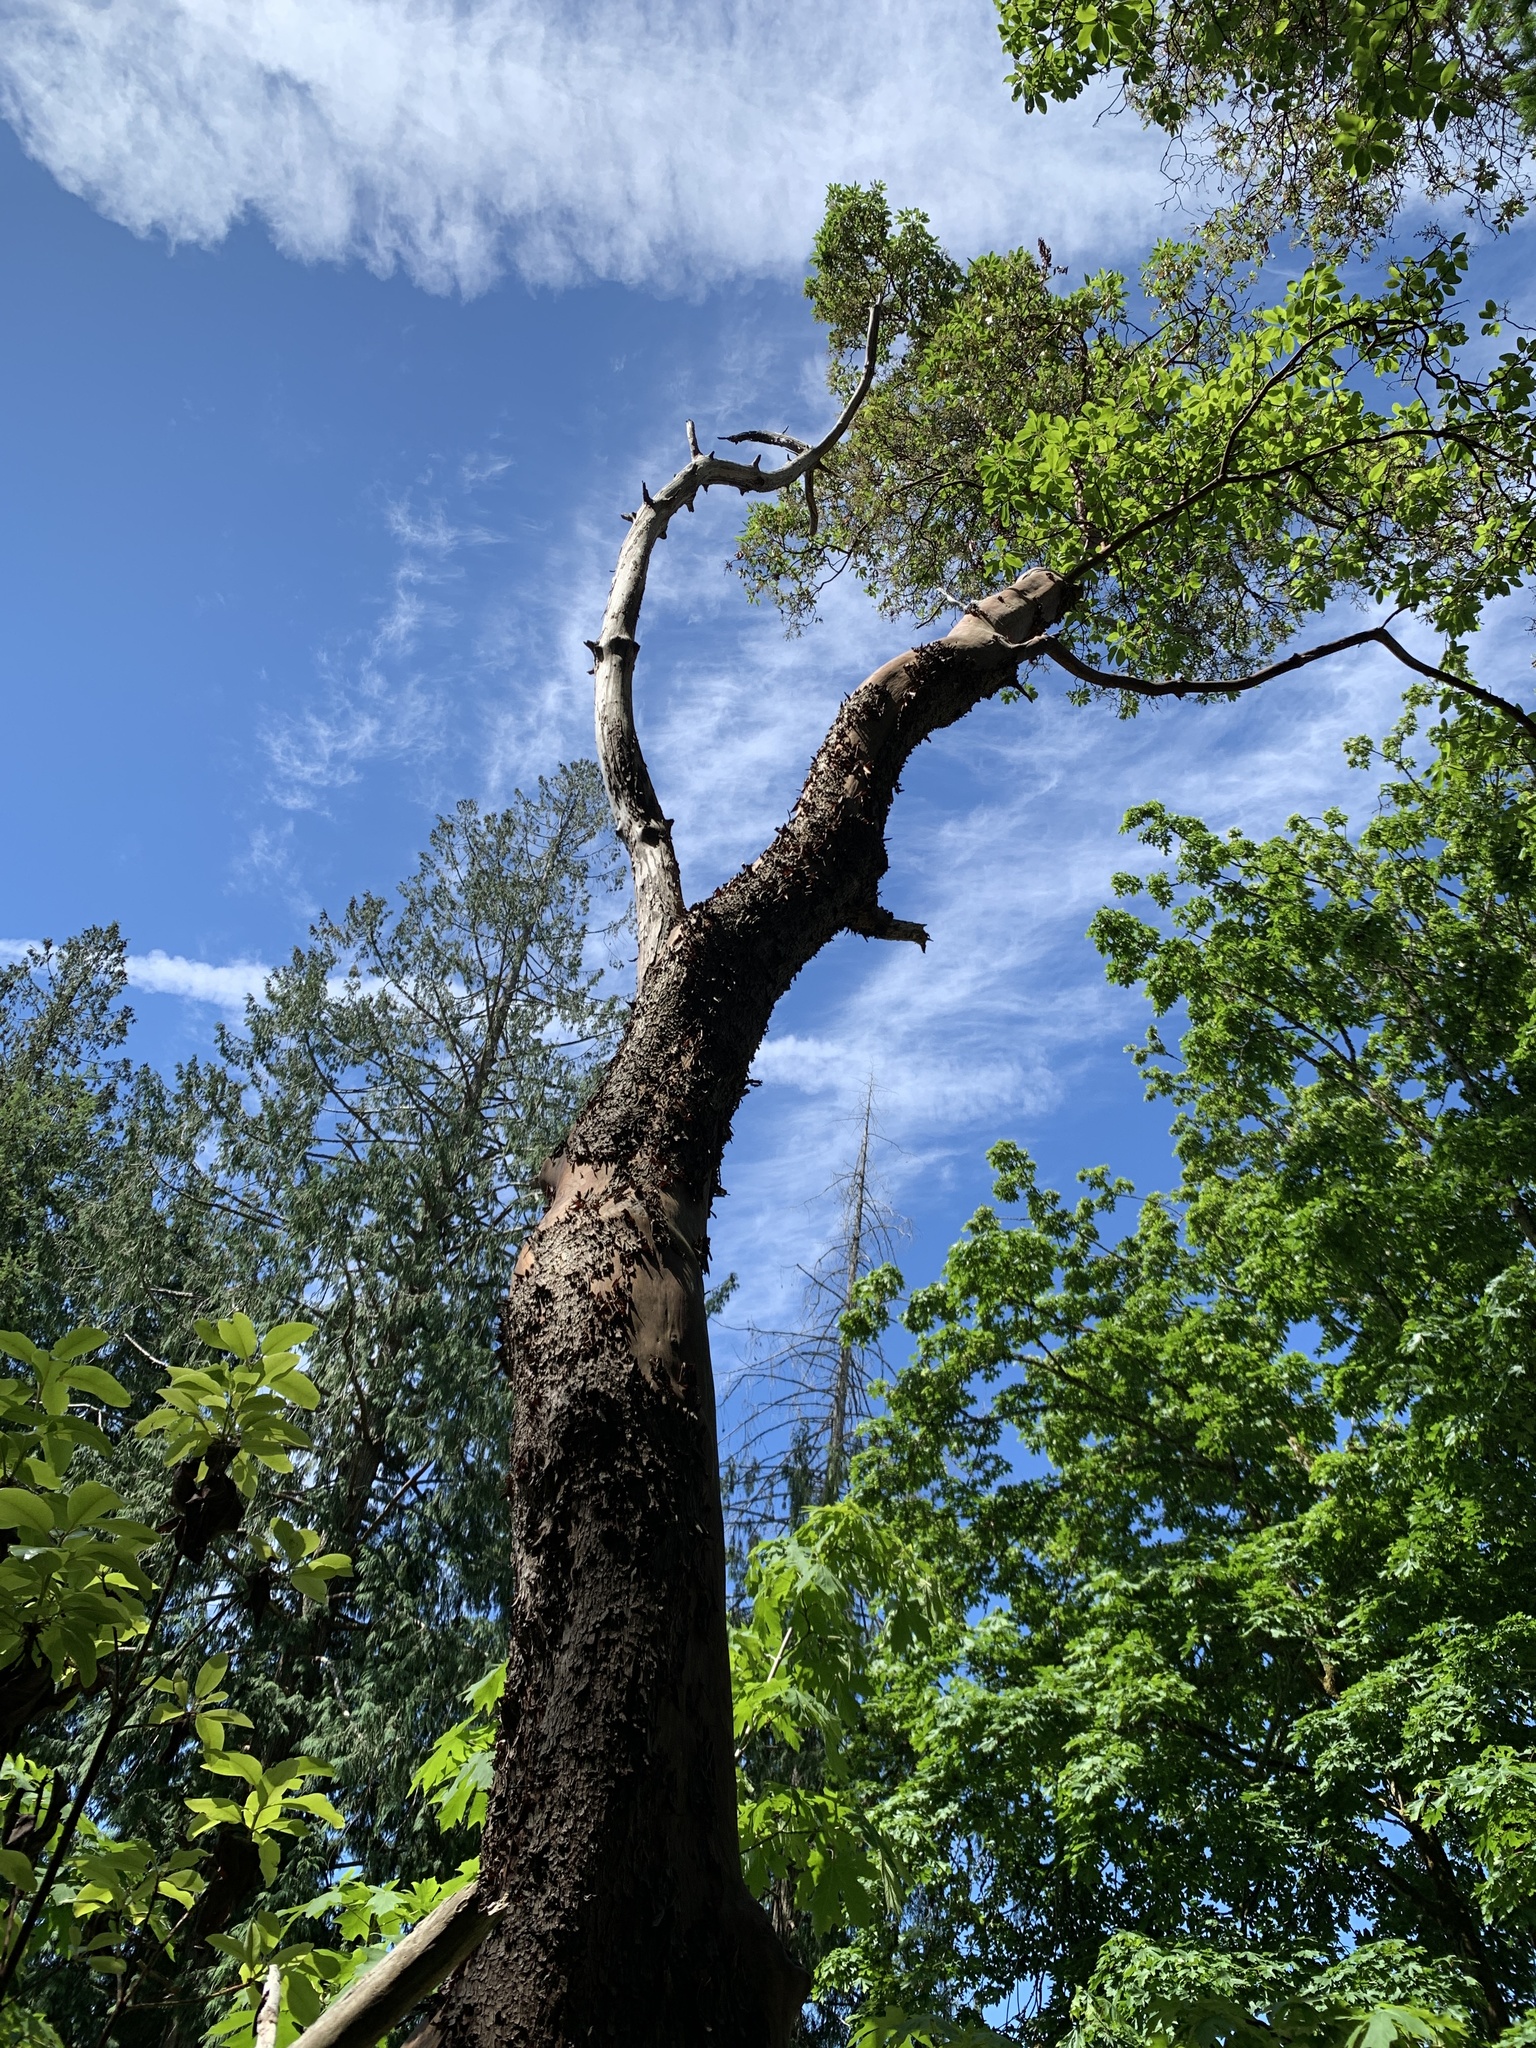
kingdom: Plantae
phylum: Tracheophyta
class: Magnoliopsida
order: Ericales
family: Ericaceae
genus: Arbutus
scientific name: Arbutus menziesii
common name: Pacific madrone
